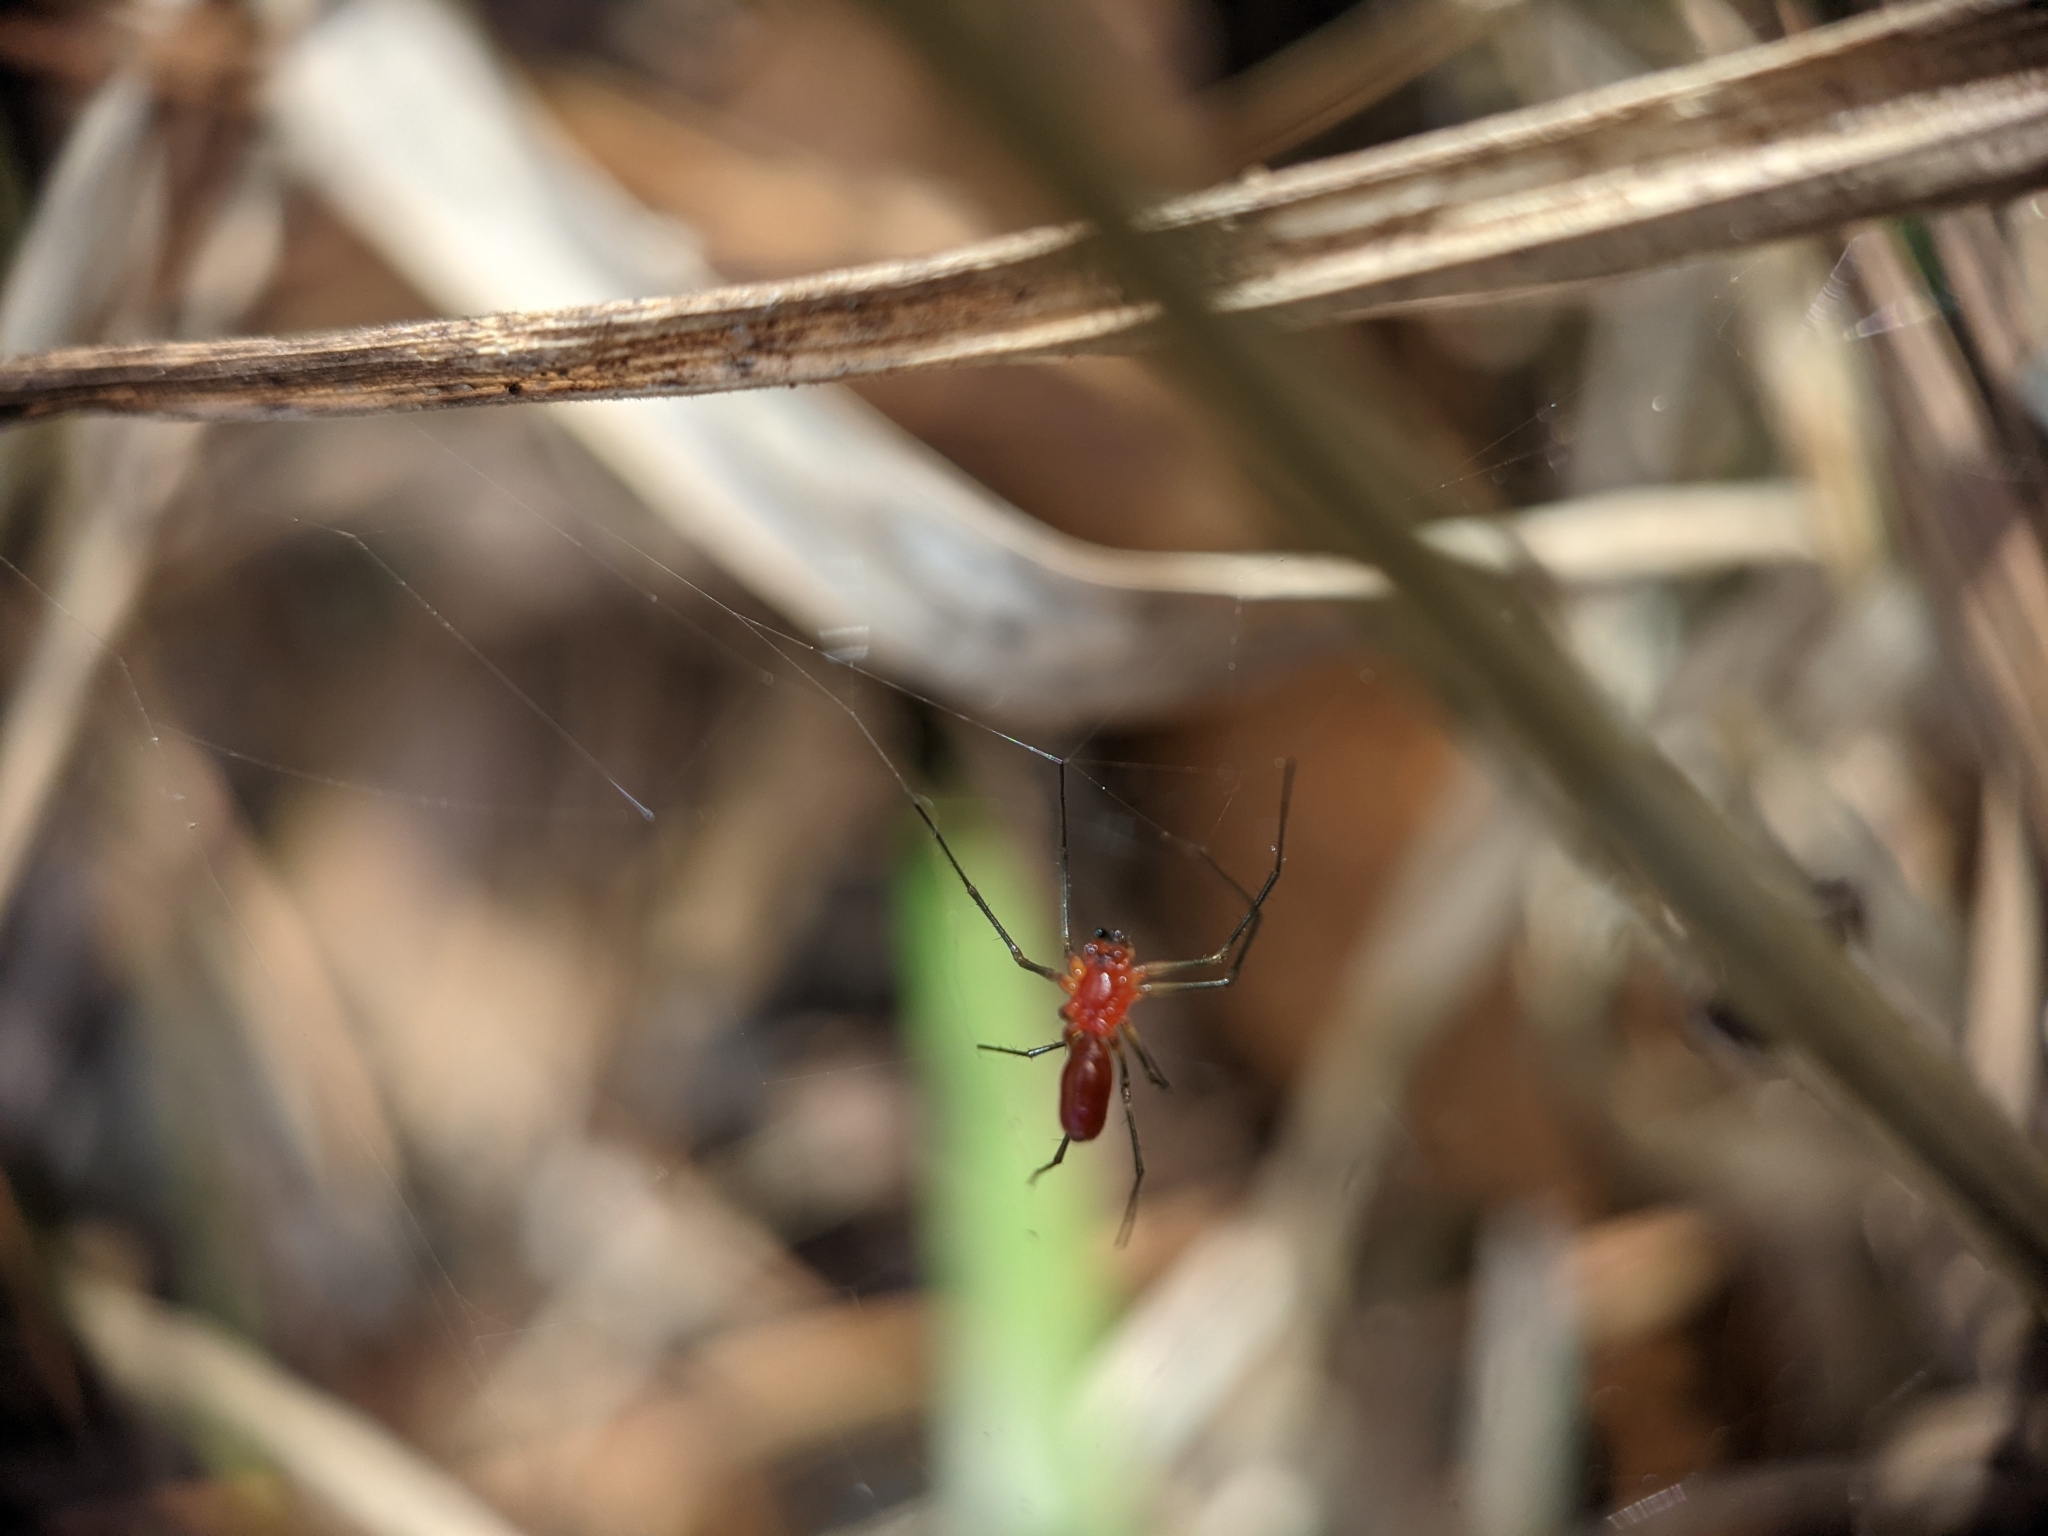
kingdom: Animalia
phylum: Arthropoda
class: Arachnida
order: Araneae
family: Linyphiidae
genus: Florinda
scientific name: Florinda coccinea
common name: Black-tailed red sheetweaver
